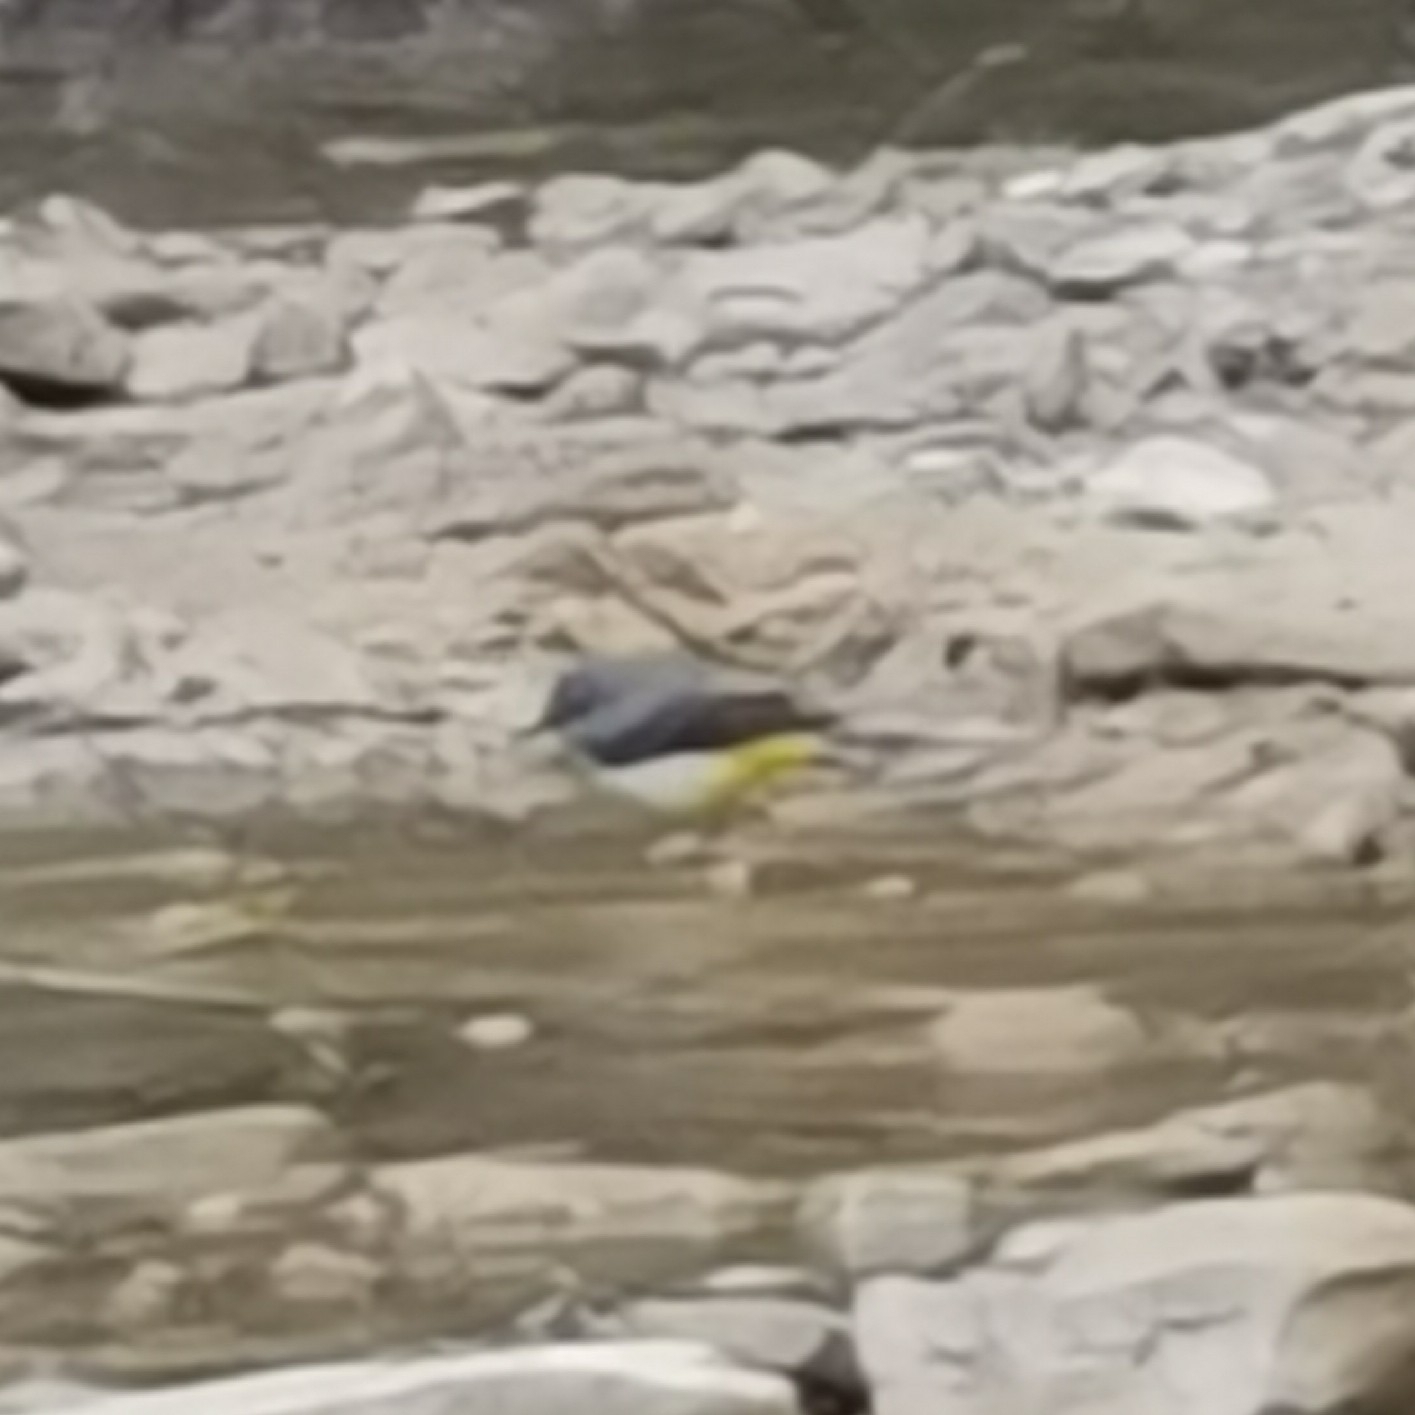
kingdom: Animalia
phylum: Chordata
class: Aves
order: Passeriformes
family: Motacillidae
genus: Motacilla
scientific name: Motacilla cinerea
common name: Grey wagtail
